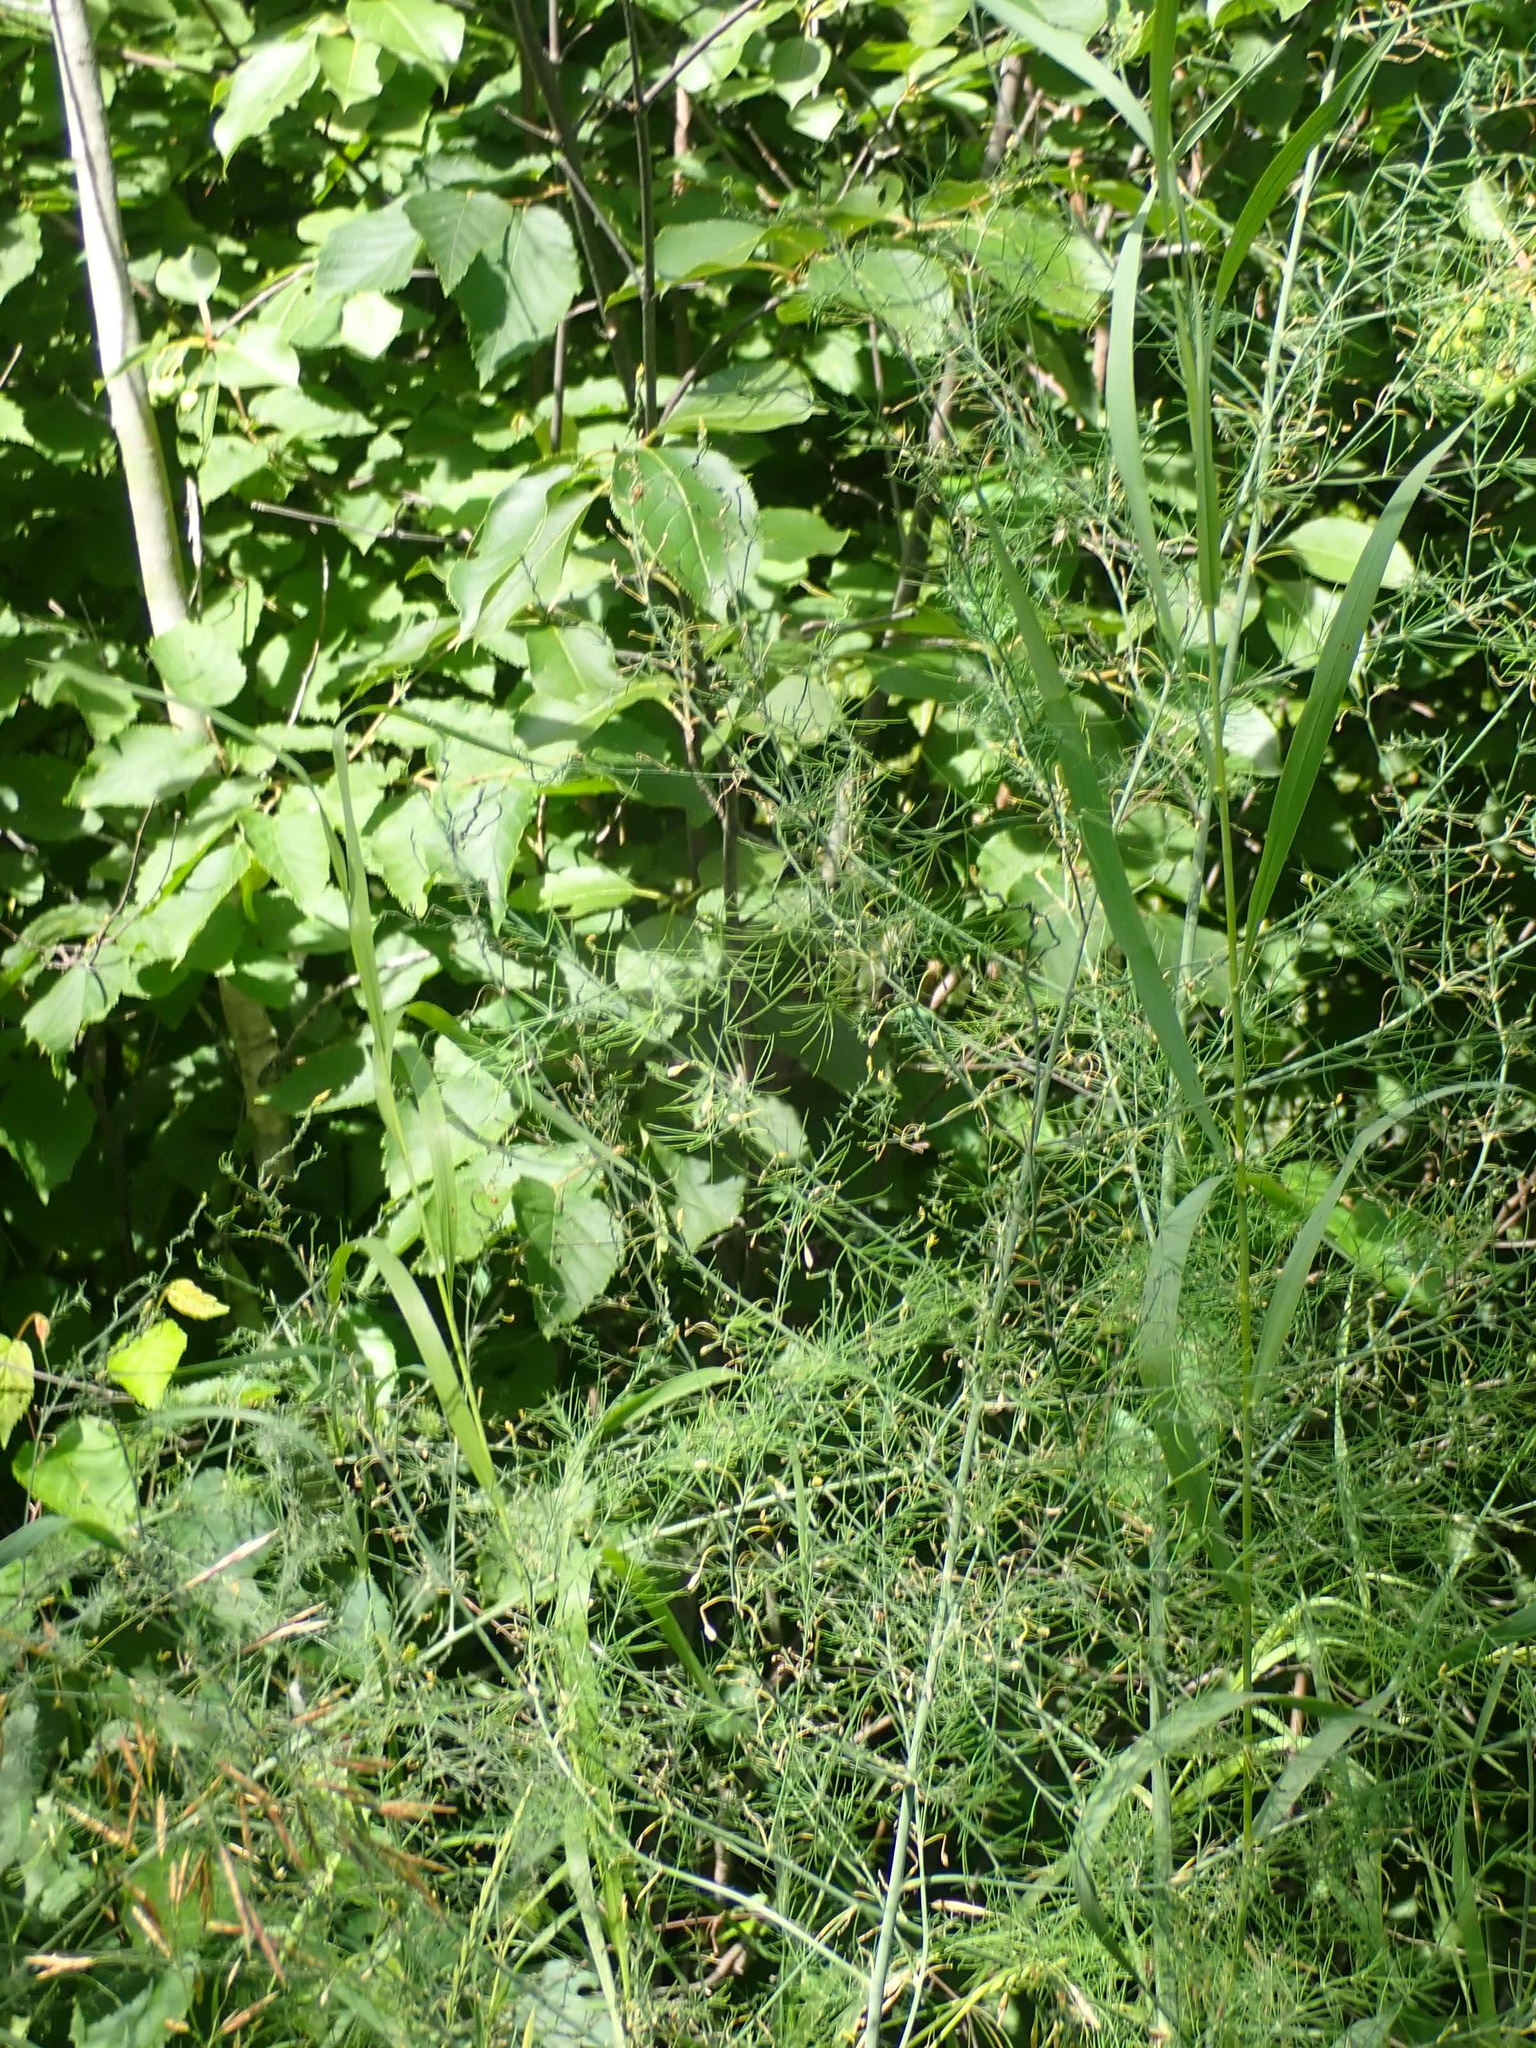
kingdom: Plantae
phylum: Tracheophyta
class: Liliopsida
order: Asparagales
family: Asparagaceae
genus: Asparagus
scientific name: Asparagus officinalis
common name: Garden asparagus
